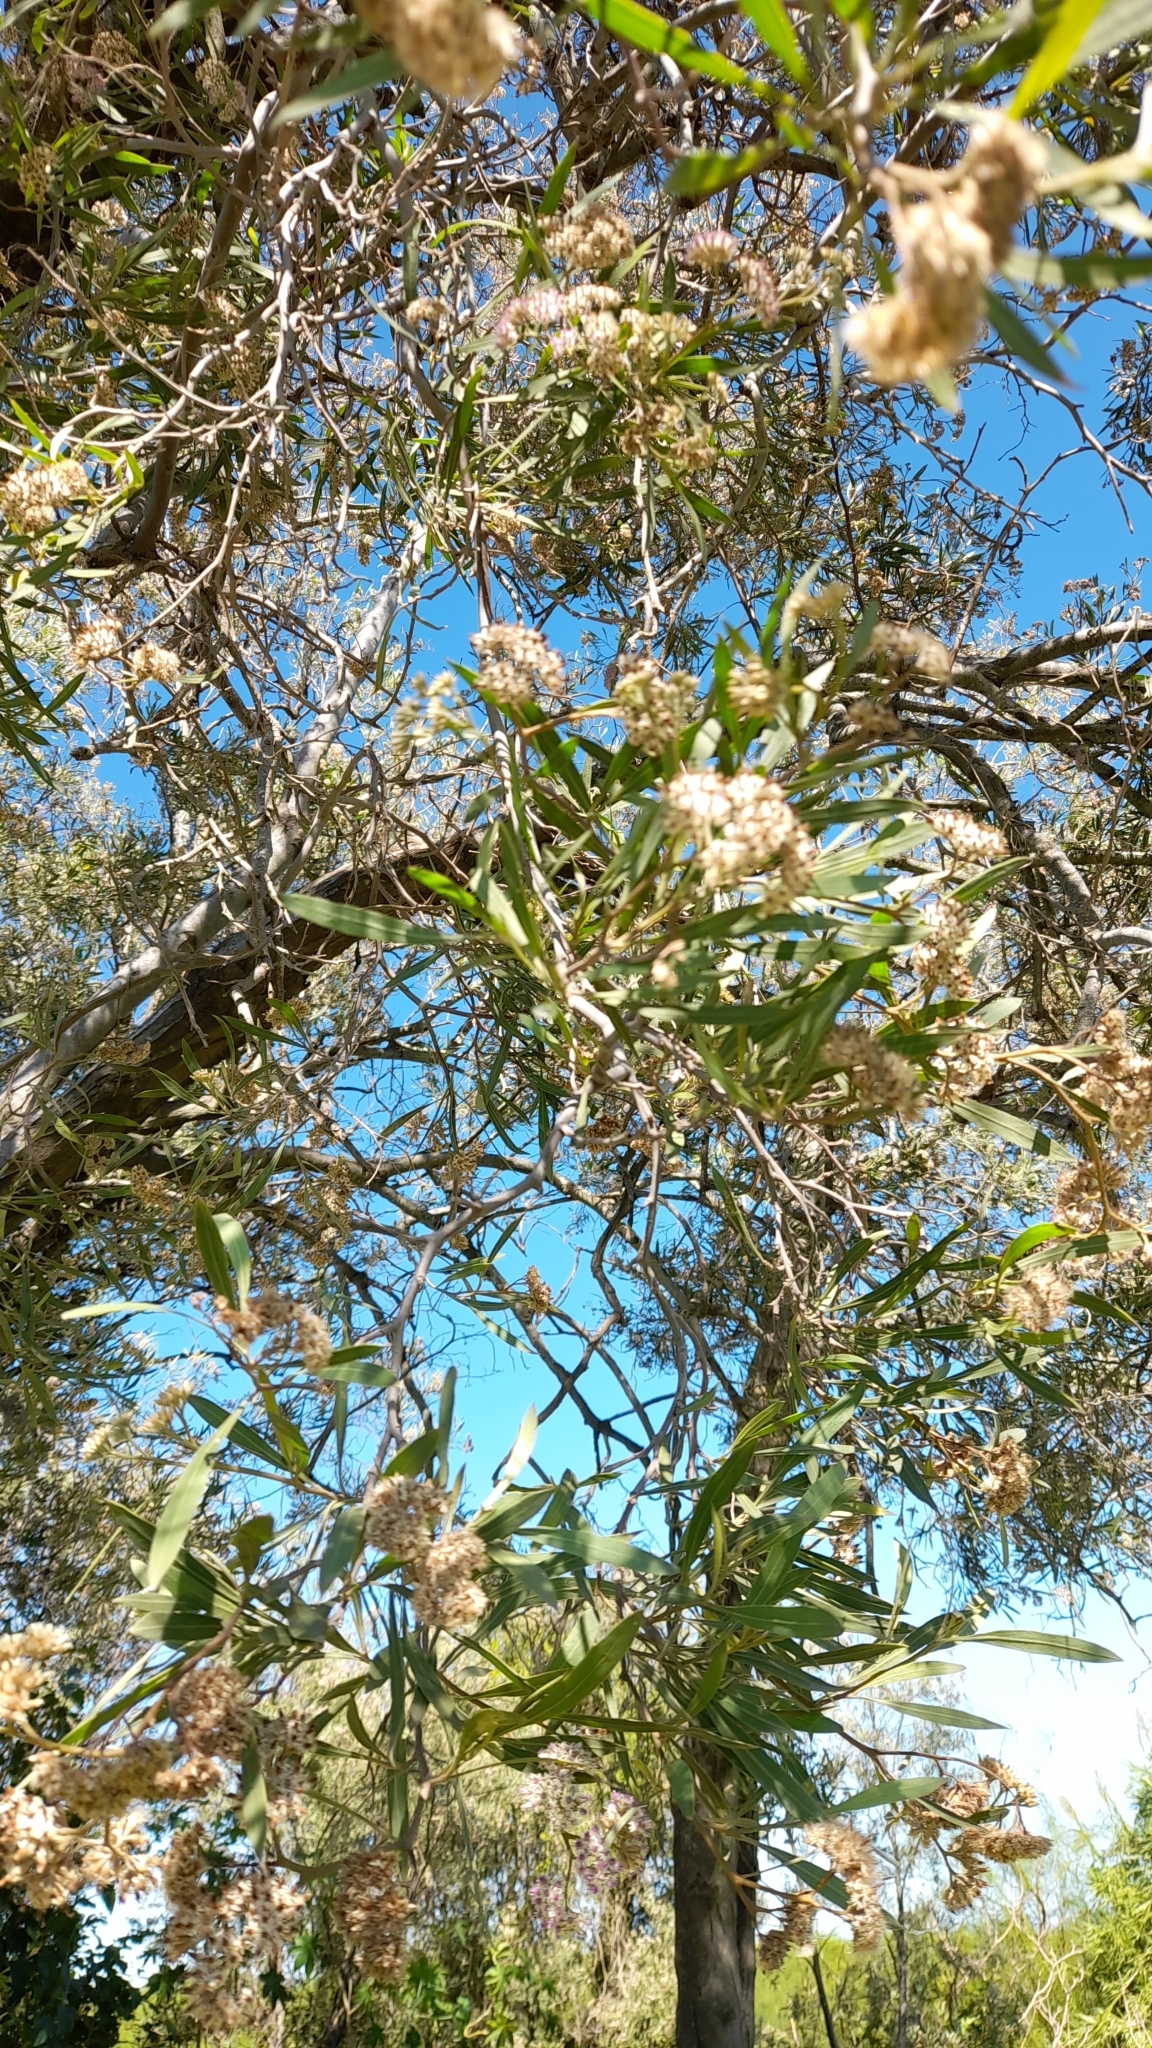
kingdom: Plantae
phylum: Tracheophyta
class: Magnoliopsida
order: Asterales
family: Asteraceae
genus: Tessaria
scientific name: Tessaria integrifolia
